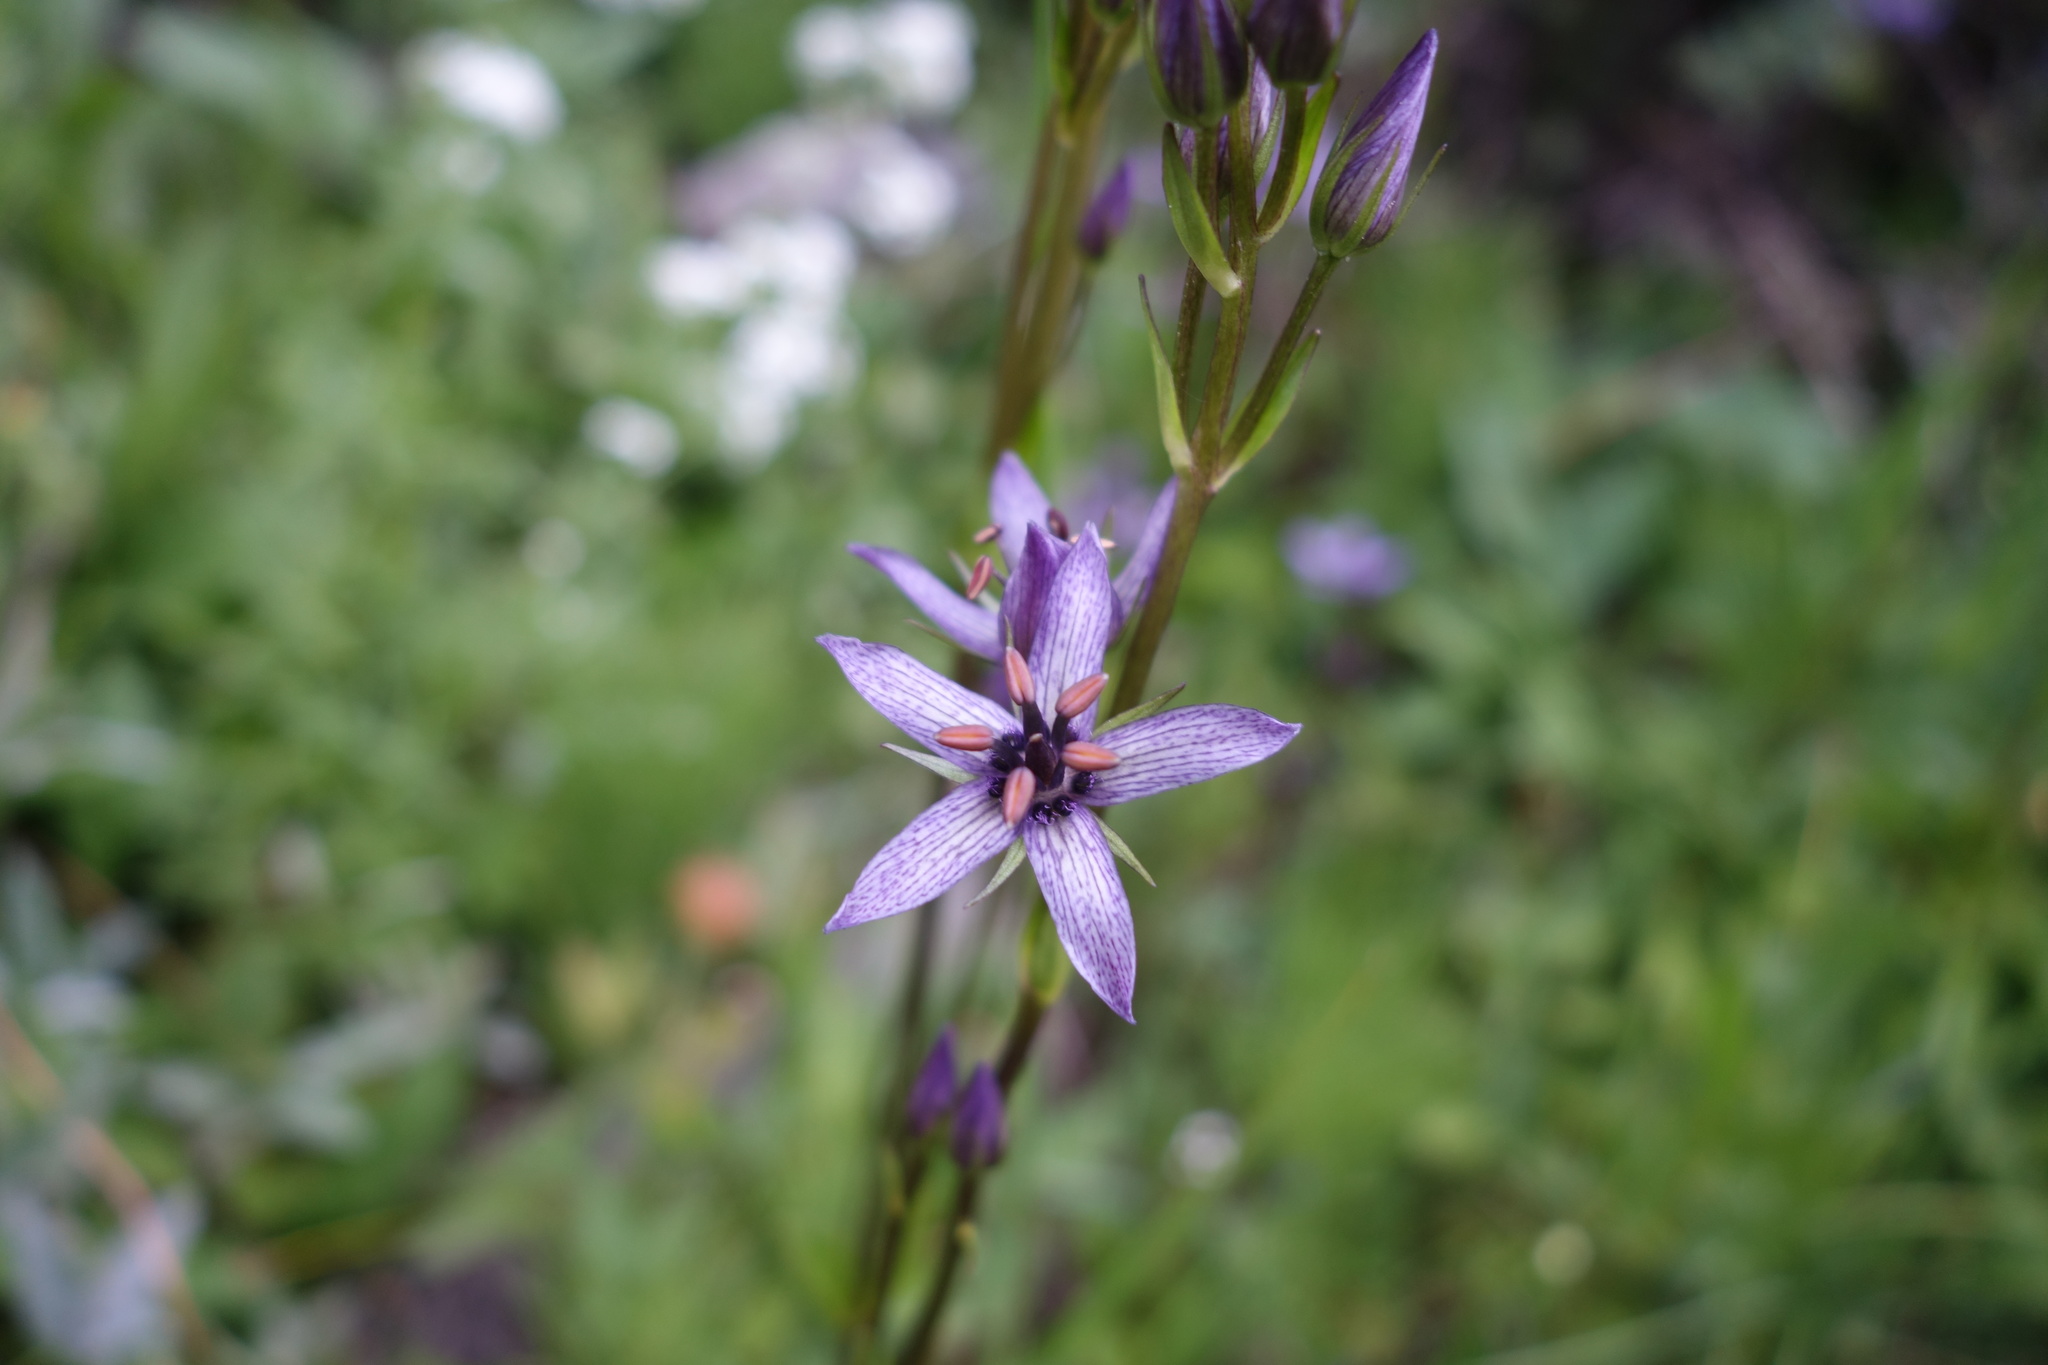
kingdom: Plantae
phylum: Tracheophyta
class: Magnoliopsida
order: Gentianales
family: Gentianaceae
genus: Swertia
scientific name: Swertia perennis
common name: Alpine bog swertia
